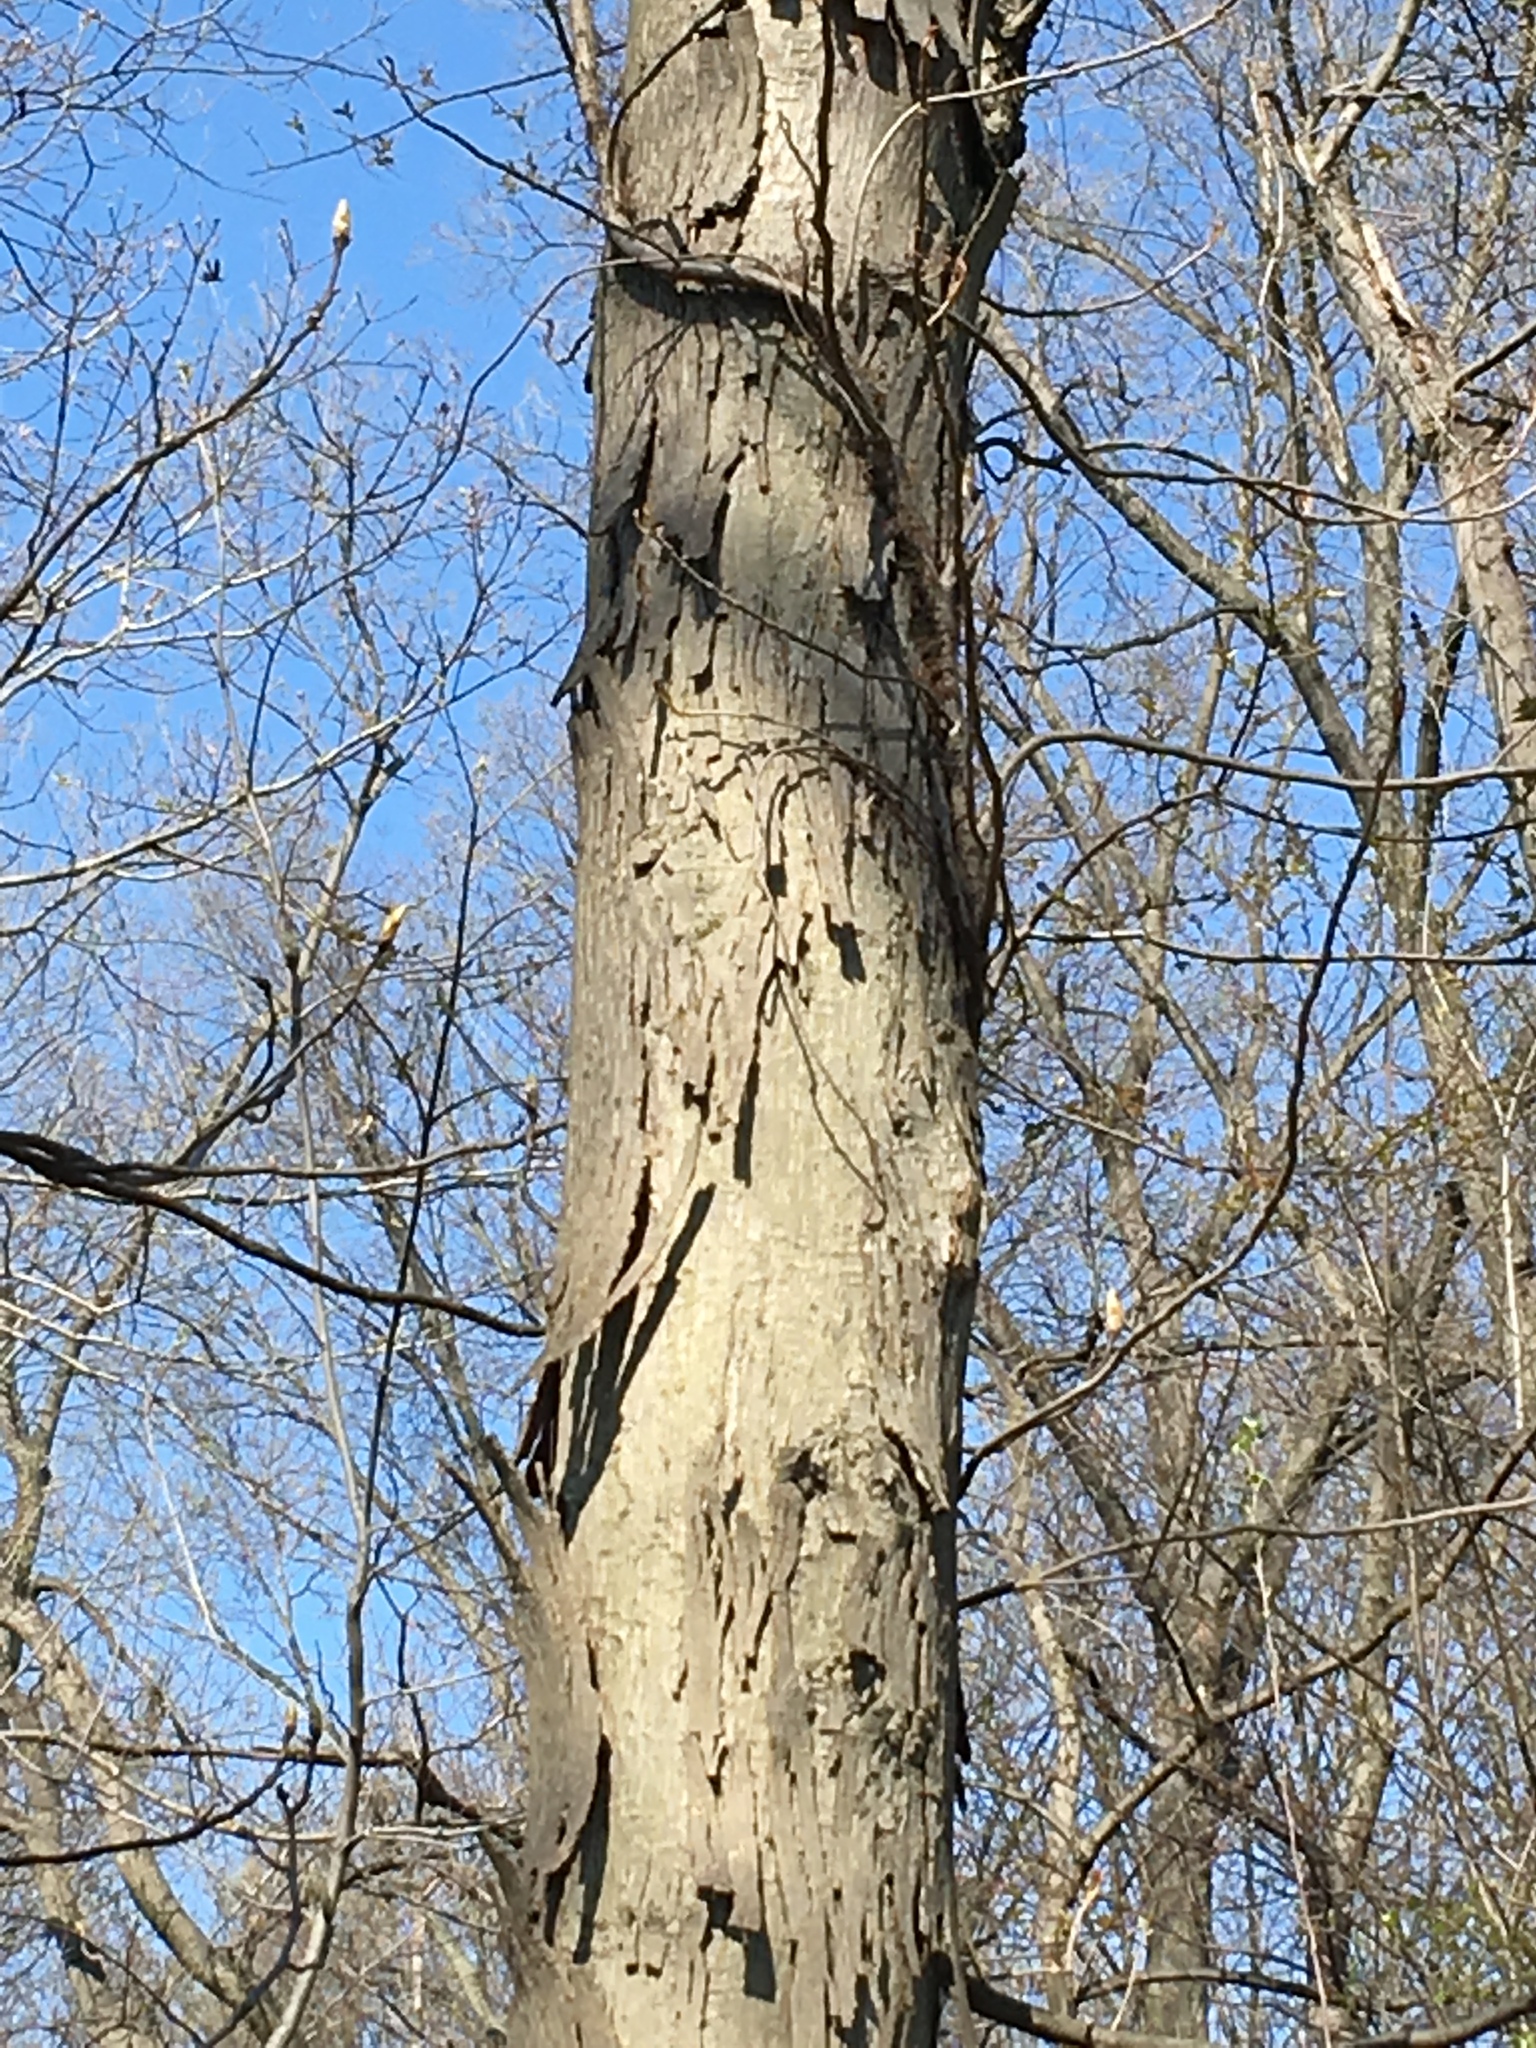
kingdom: Plantae
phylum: Tracheophyta
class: Magnoliopsida
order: Fagales
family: Juglandaceae
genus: Carya
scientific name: Carya ovata
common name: Shagbark hickory
